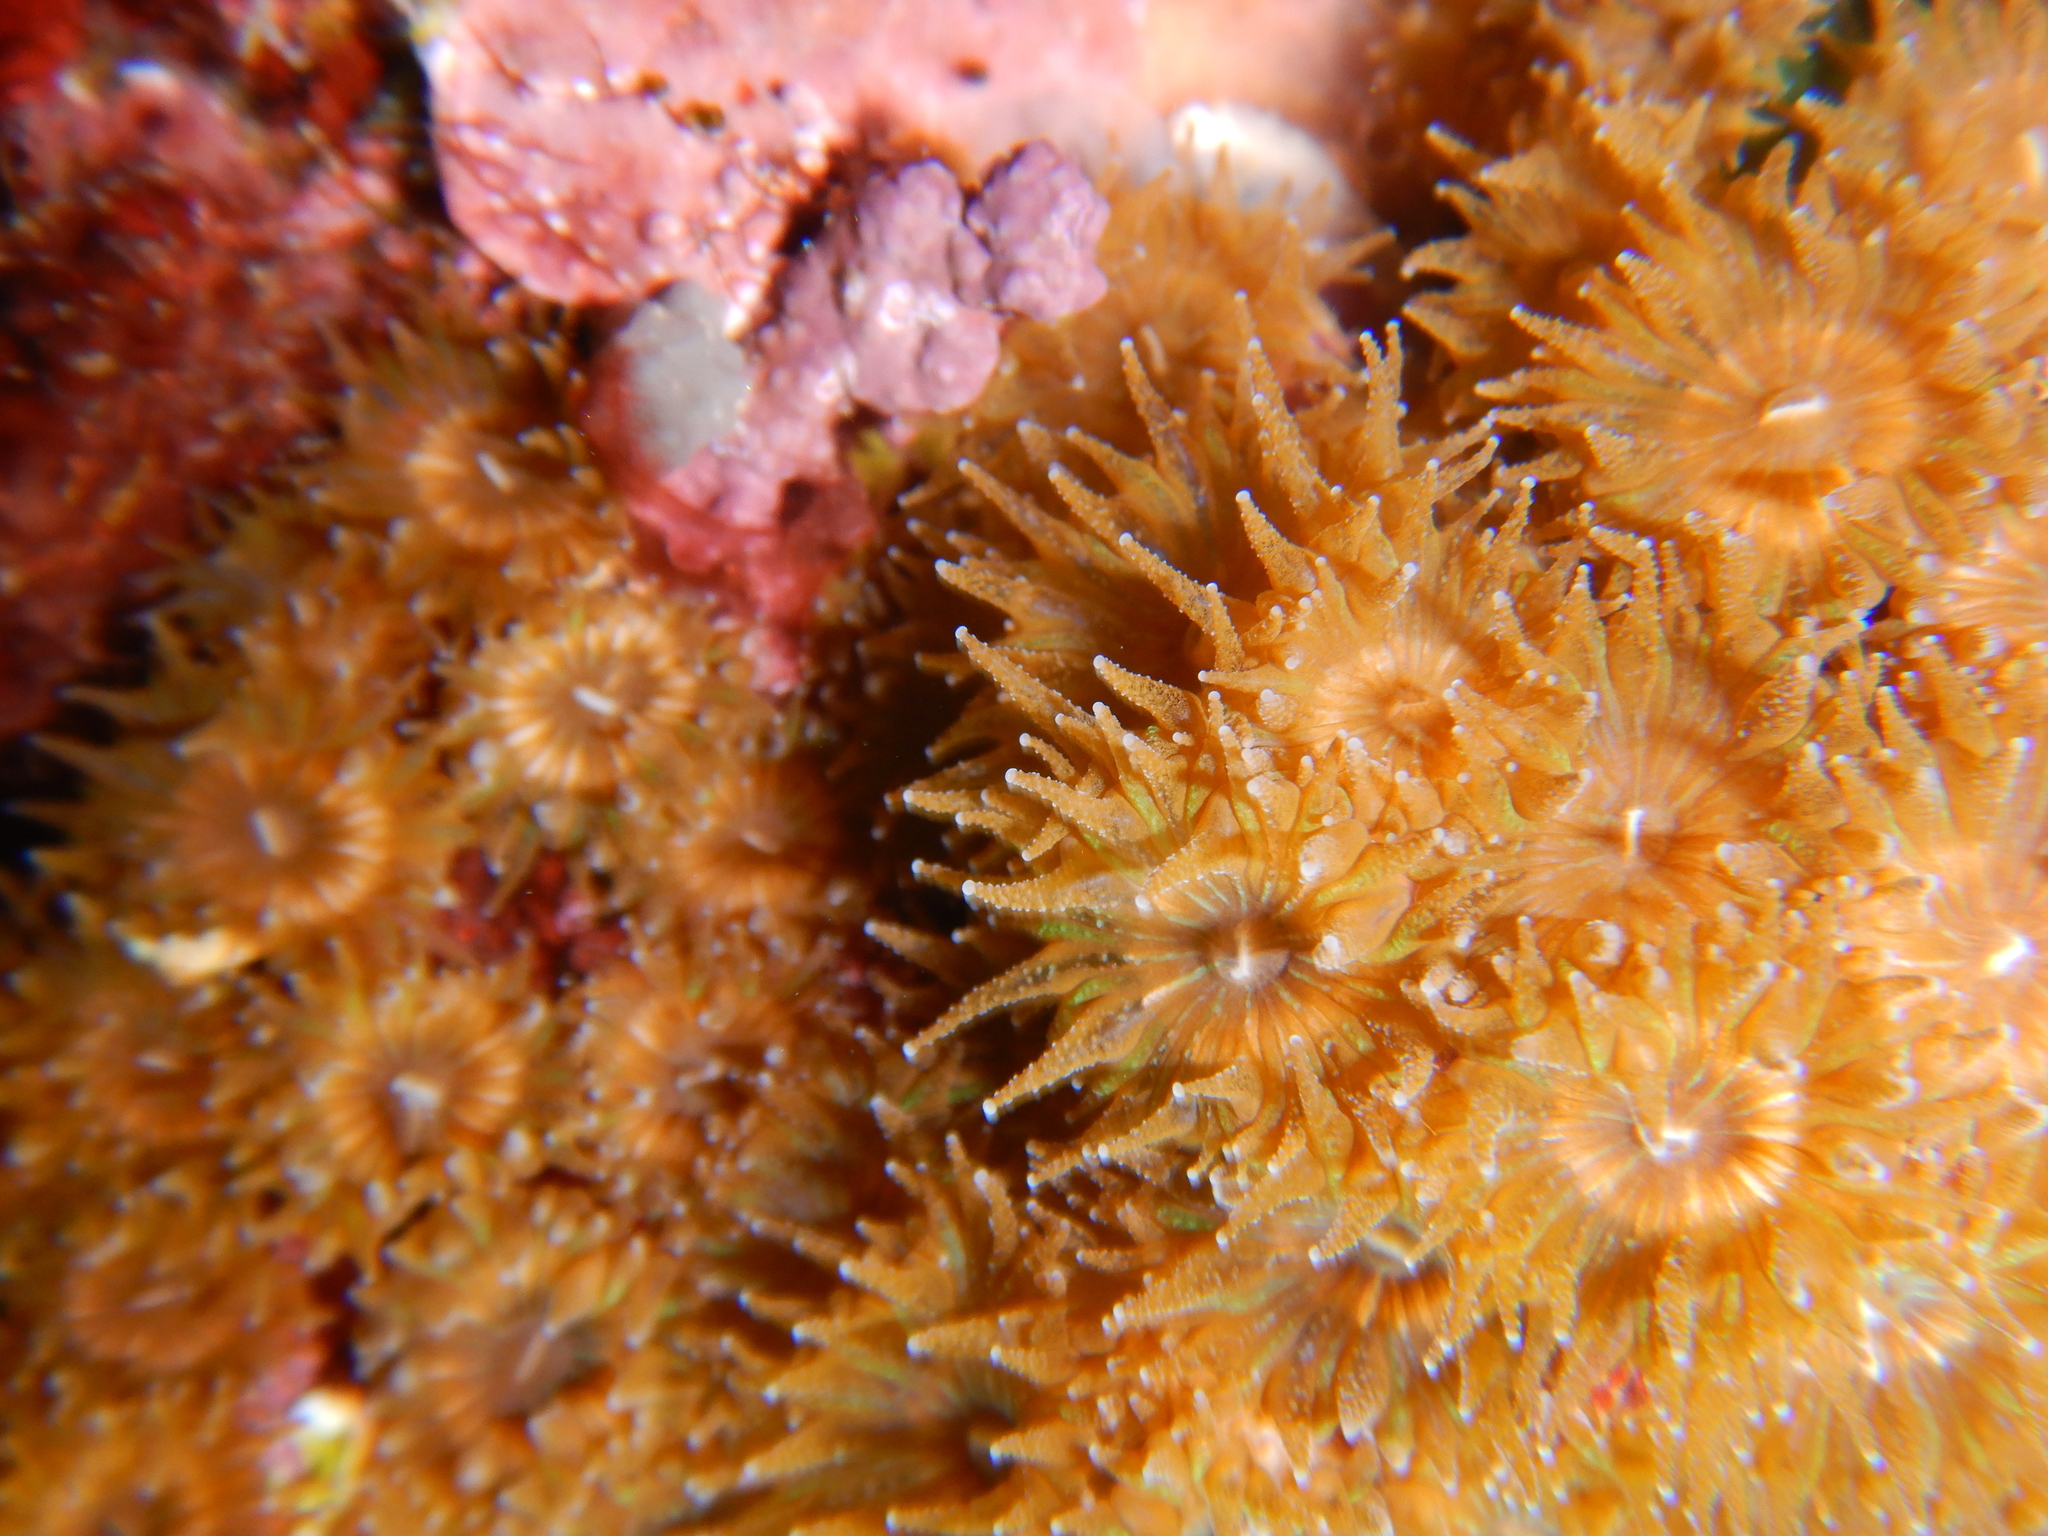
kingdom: Animalia
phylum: Cnidaria
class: Anthozoa
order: Scleractinia
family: Cladocoridae
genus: Cladocora
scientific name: Cladocora caespitosa
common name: Cladocora
